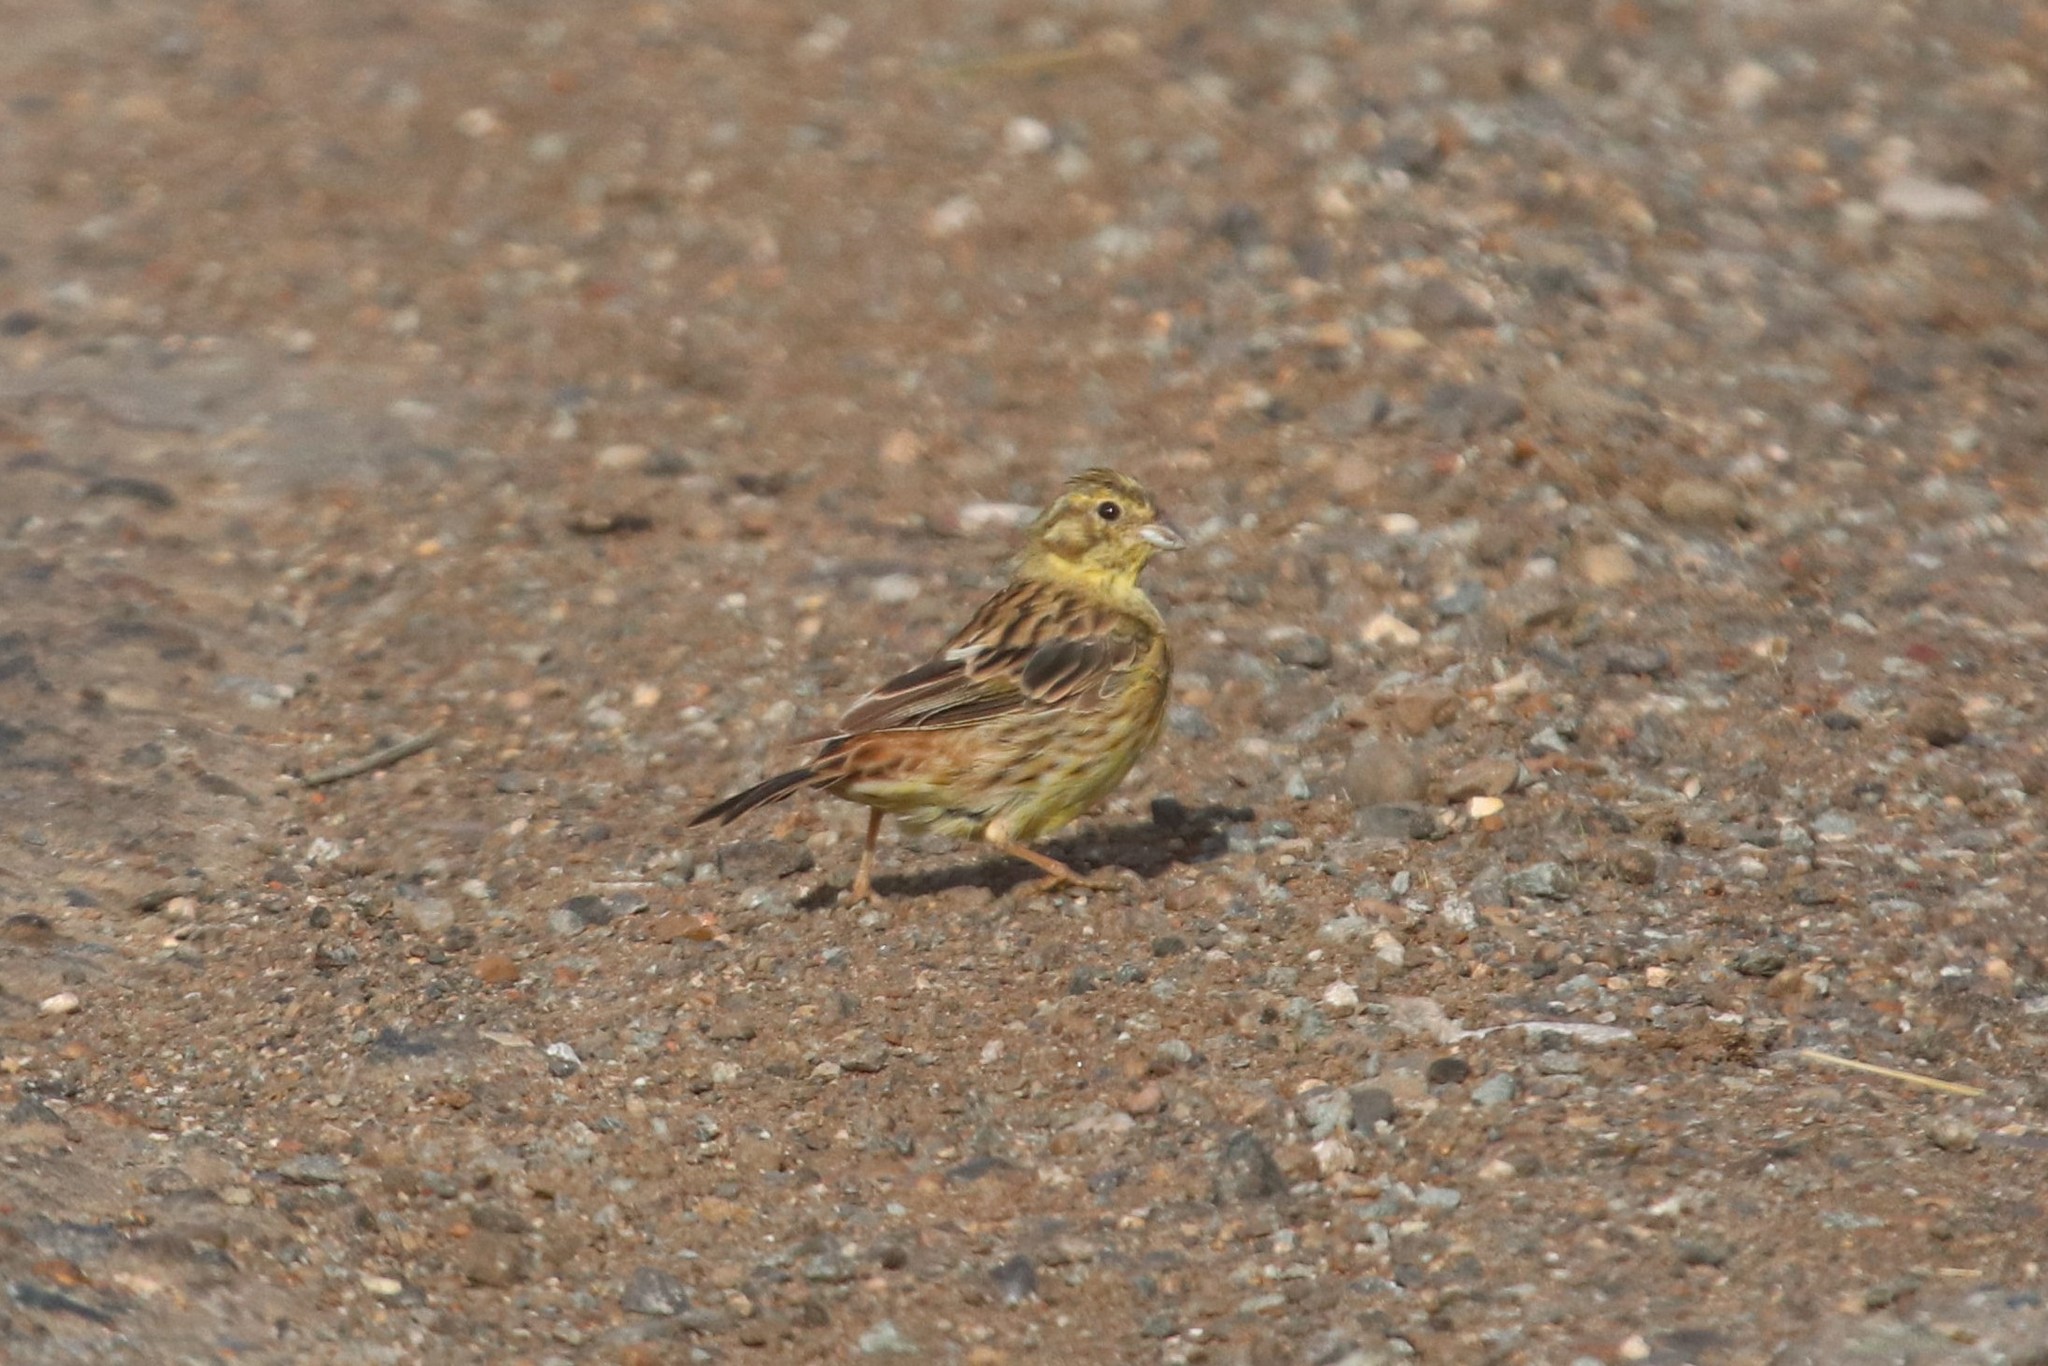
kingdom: Animalia
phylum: Chordata
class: Aves
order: Passeriformes
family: Emberizidae
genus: Emberiza
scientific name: Emberiza citrinella
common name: Yellowhammer
